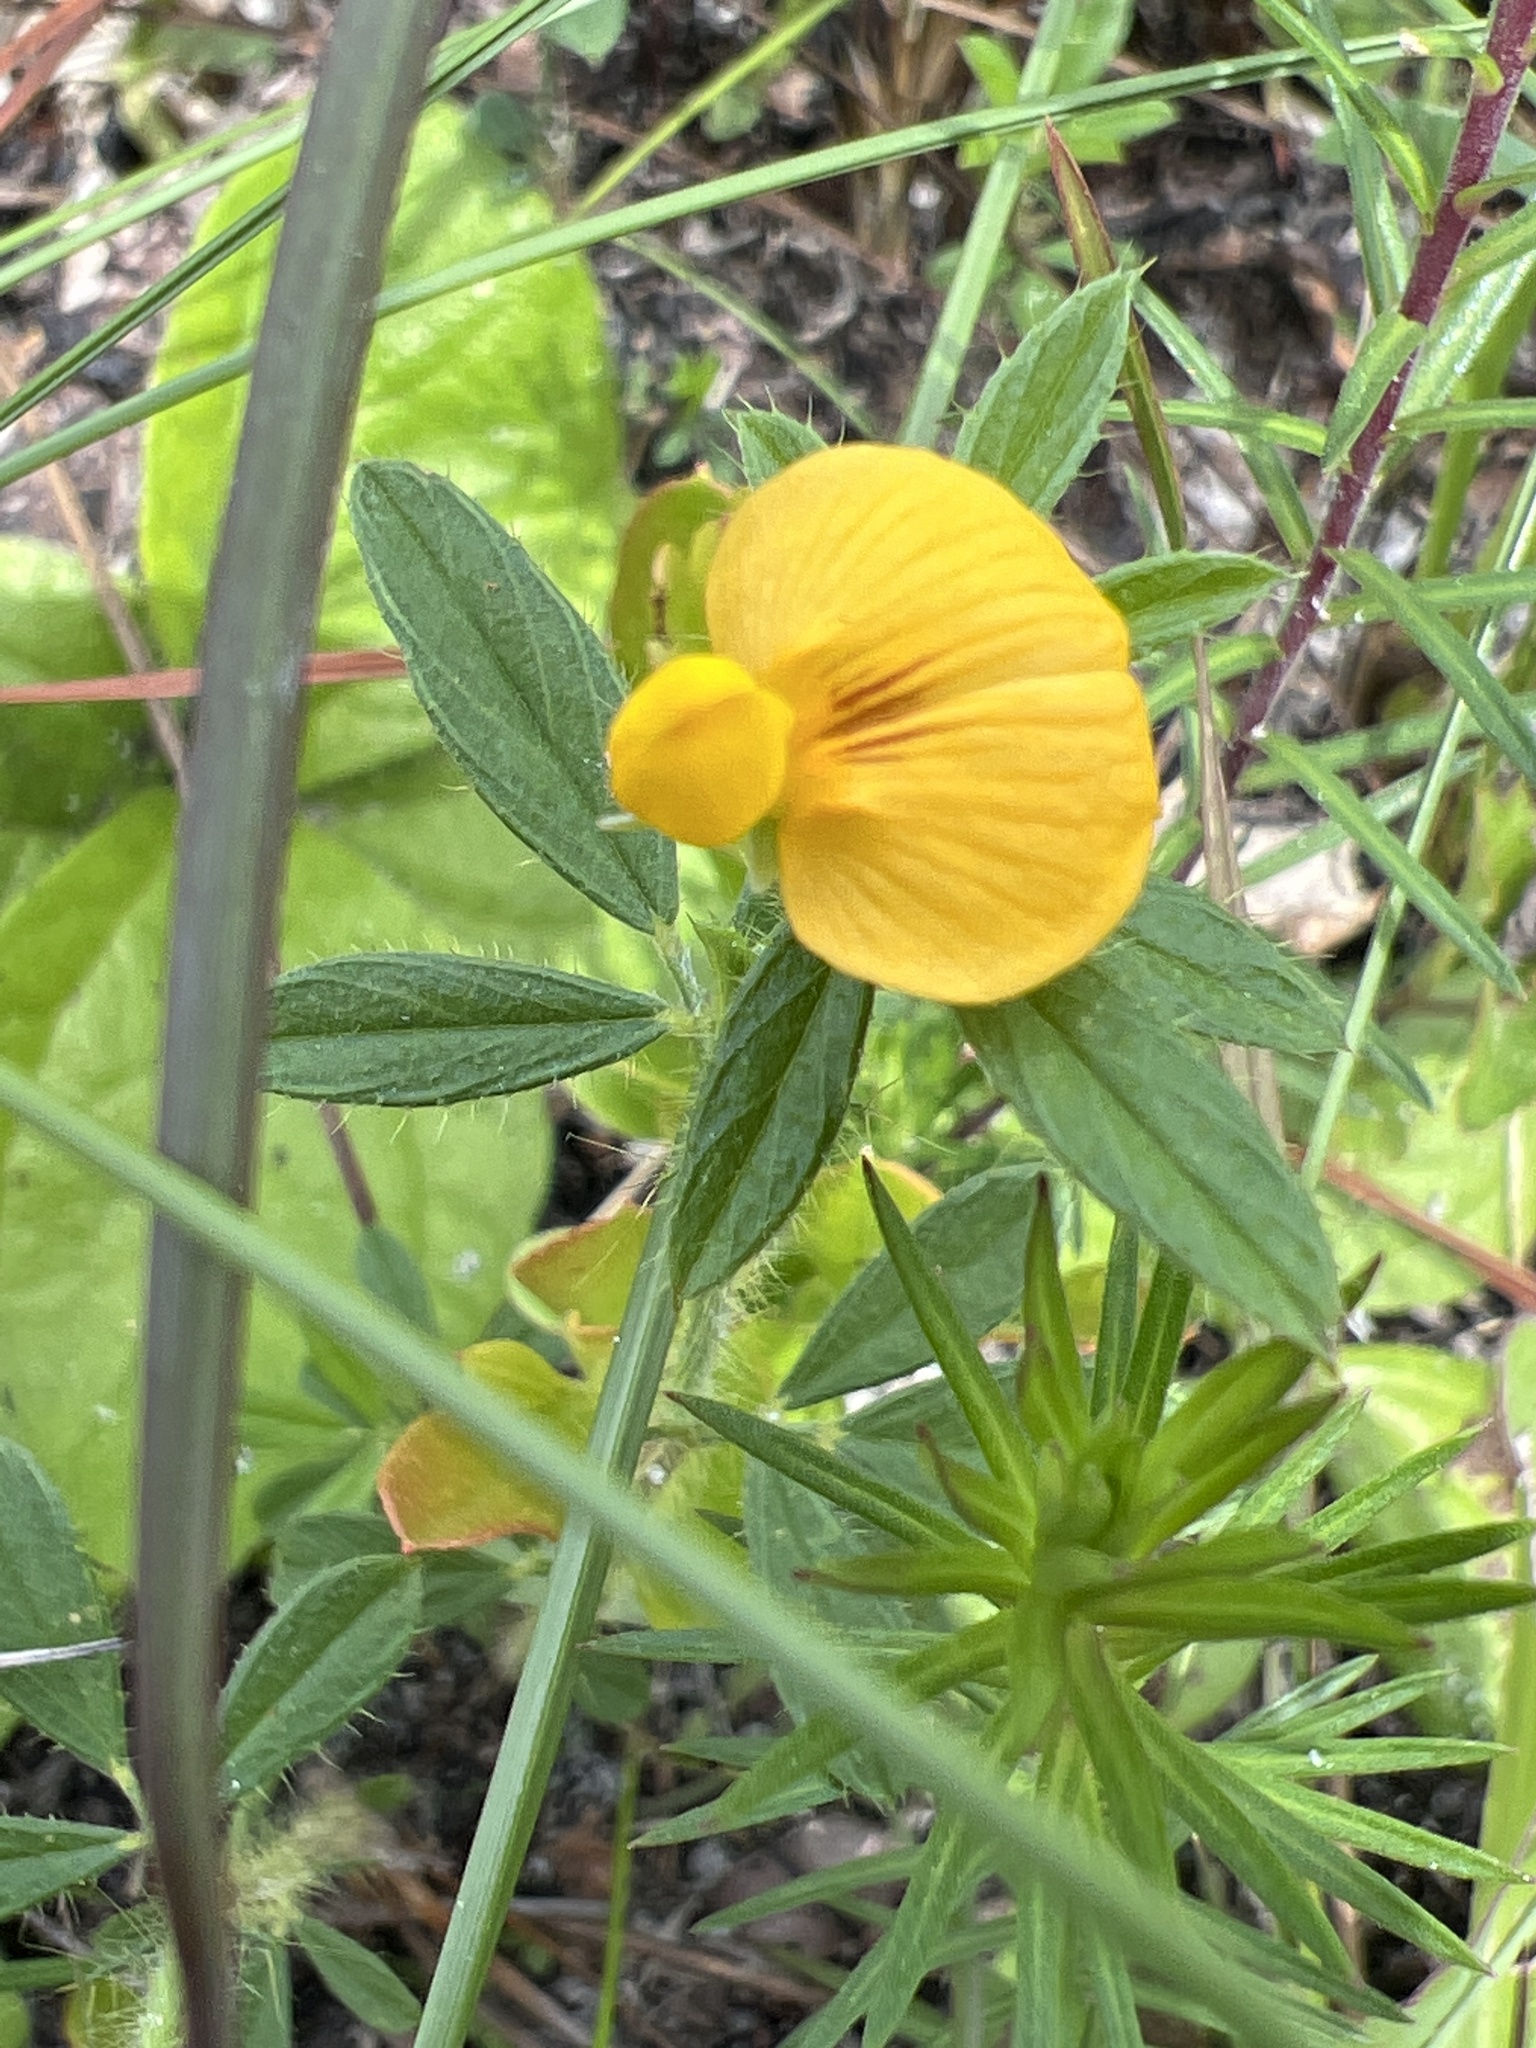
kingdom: Plantae
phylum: Tracheophyta
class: Magnoliopsida
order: Fabales
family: Fabaceae
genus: Stylosanthes
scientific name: Stylosanthes biflora
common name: Two-flower pencil-flower
